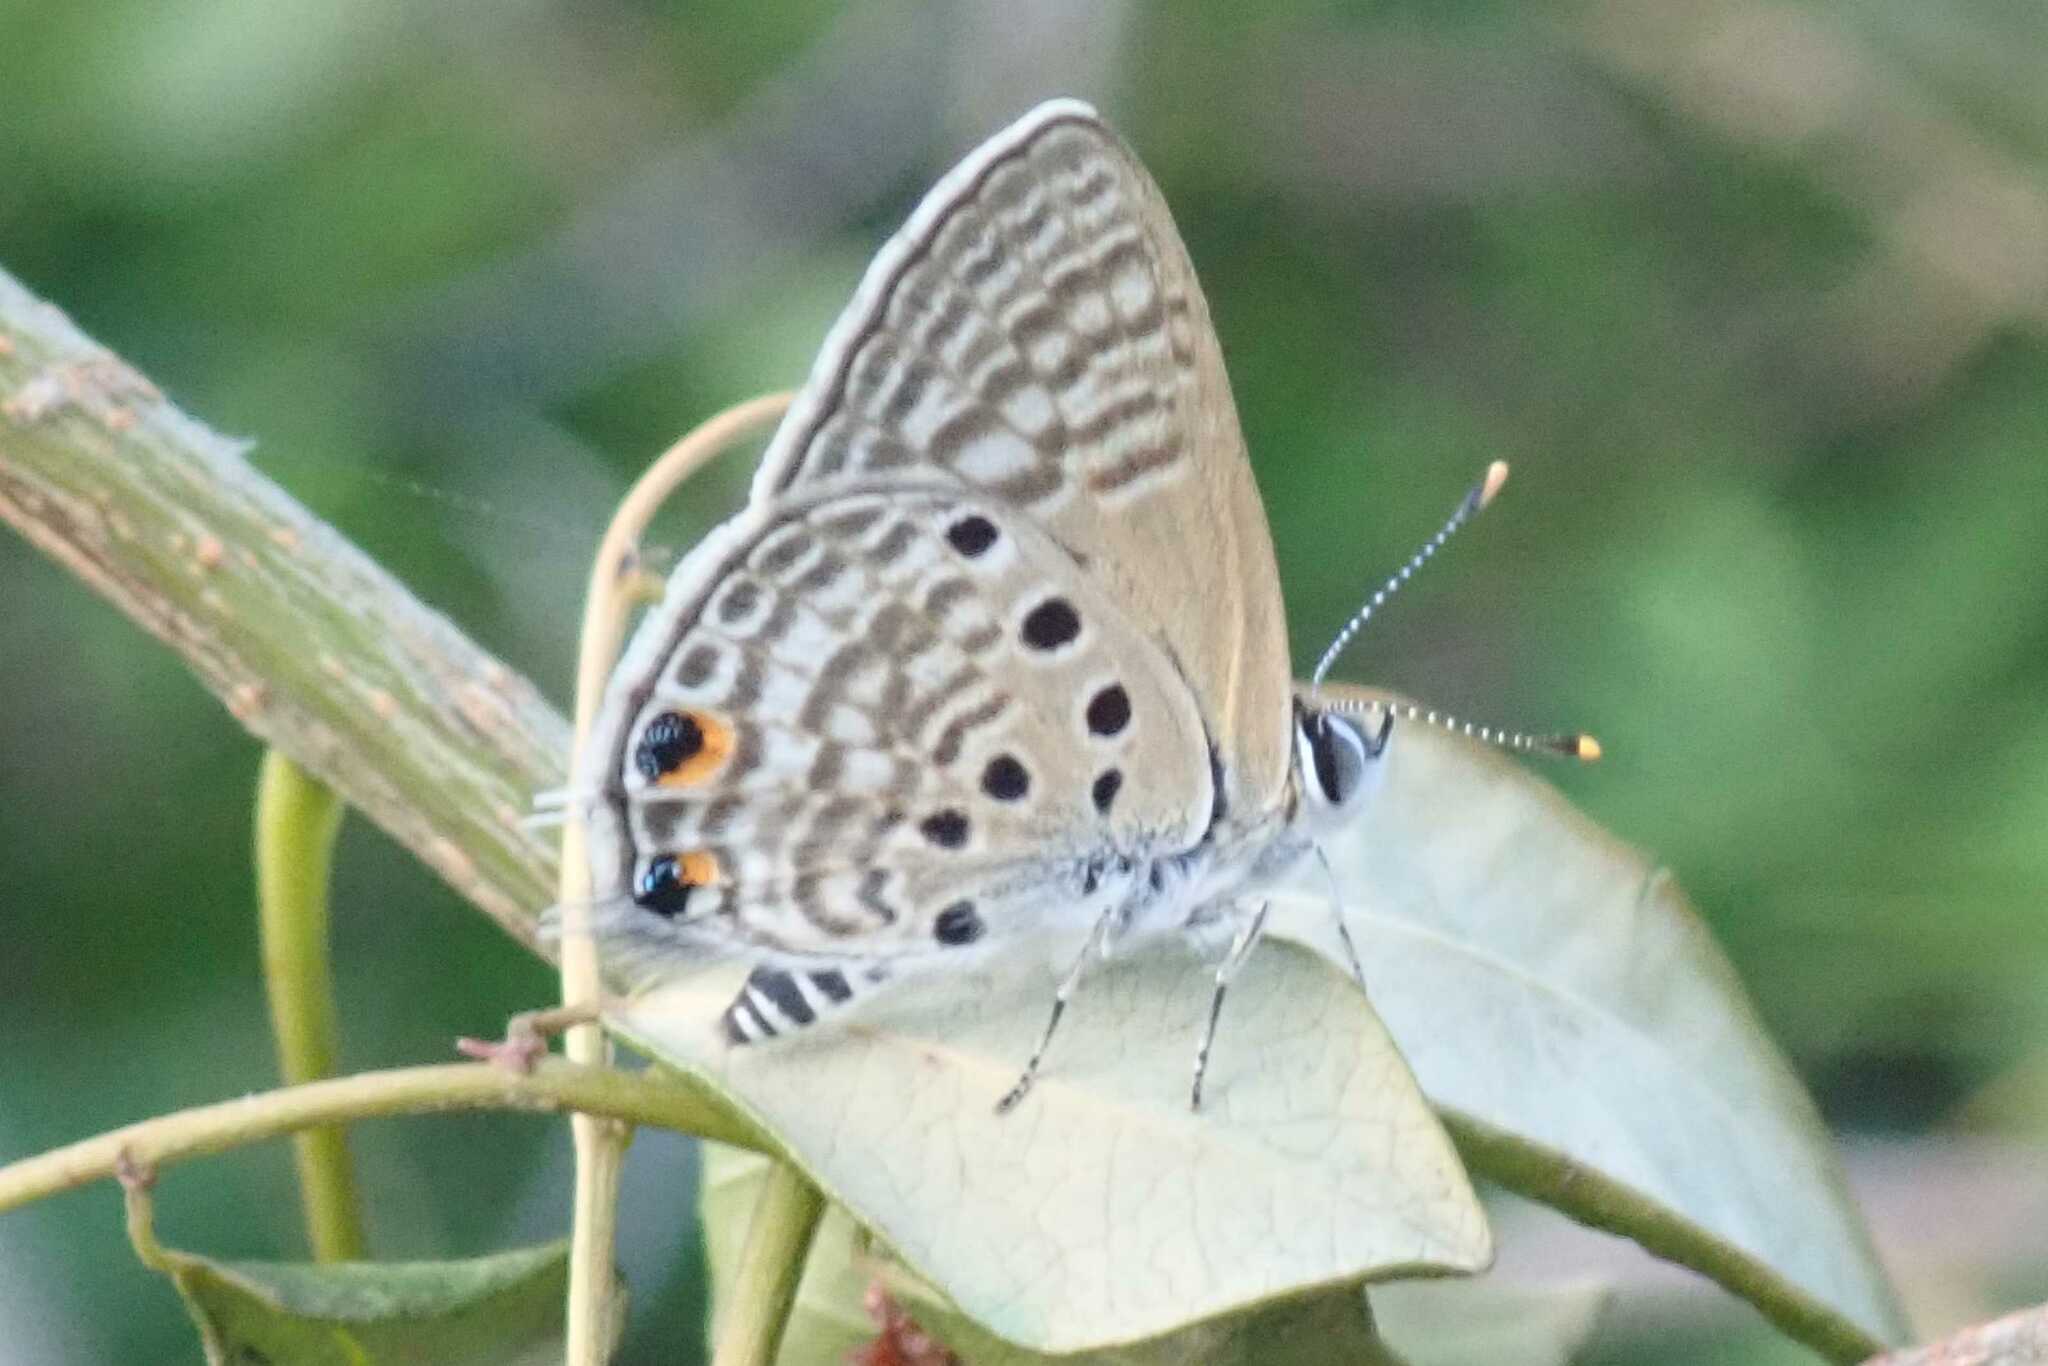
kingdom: Animalia
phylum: Arthropoda
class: Insecta
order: Lepidoptera
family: Lycaenidae
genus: Anthene
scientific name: Anthene amarah
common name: Black-striped hairtail
